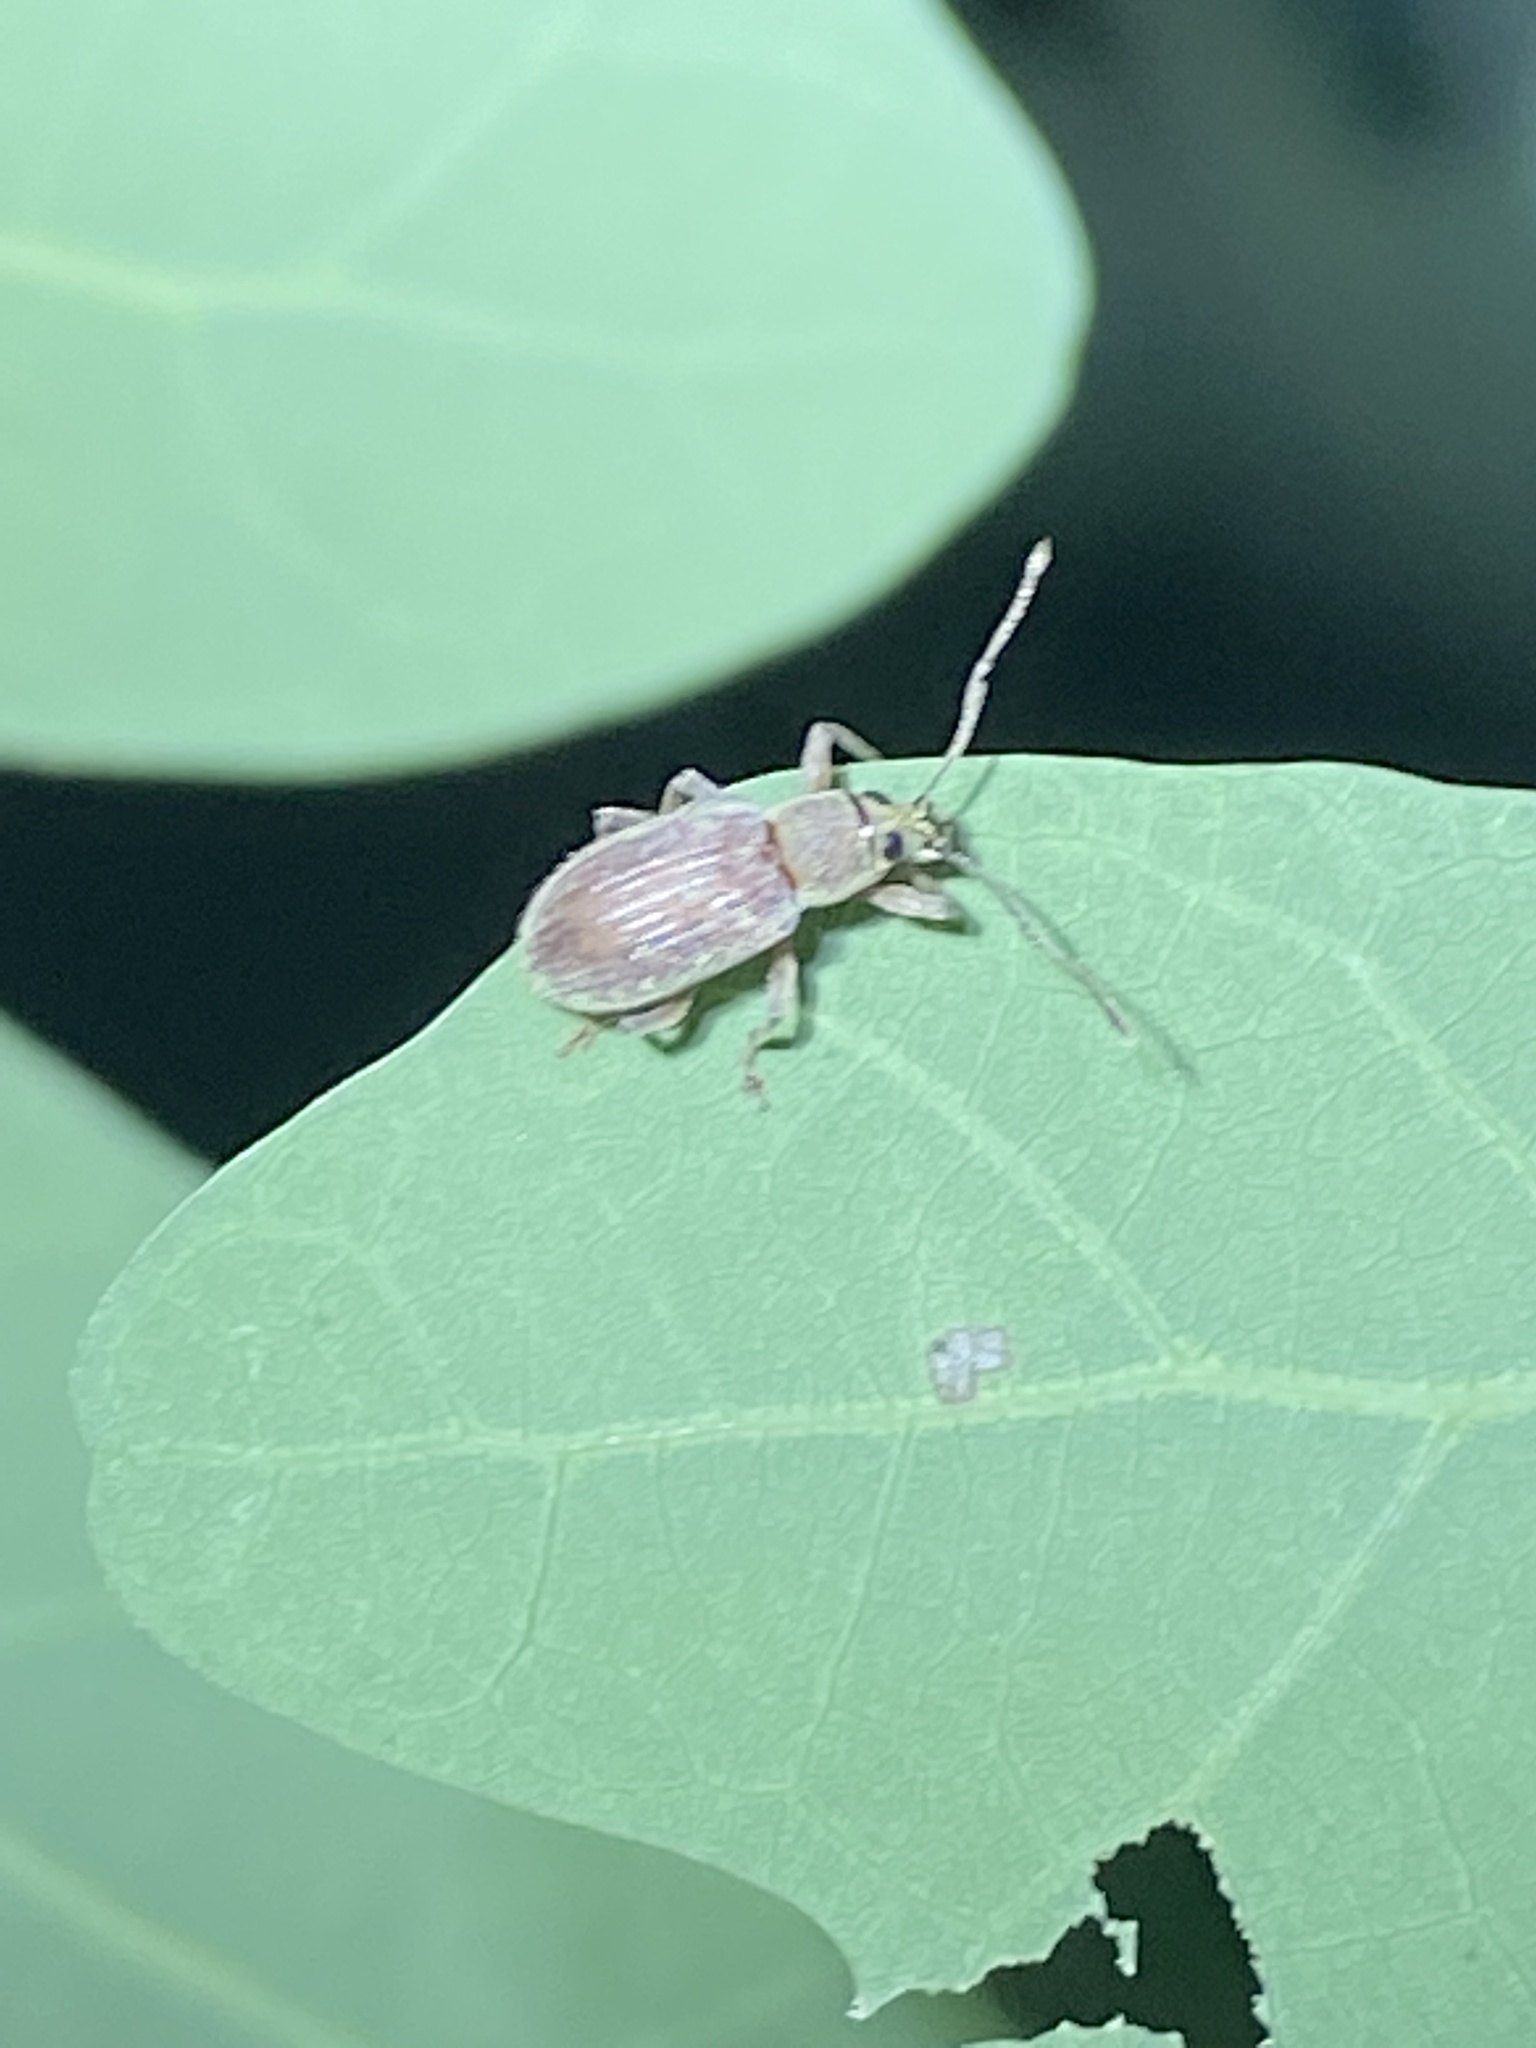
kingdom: Animalia
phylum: Arthropoda
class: Insecta
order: Coleoptera
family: Curculionidae
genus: Cyrtepistomus
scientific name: Cyrtepistomus castaneus
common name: Weevil
